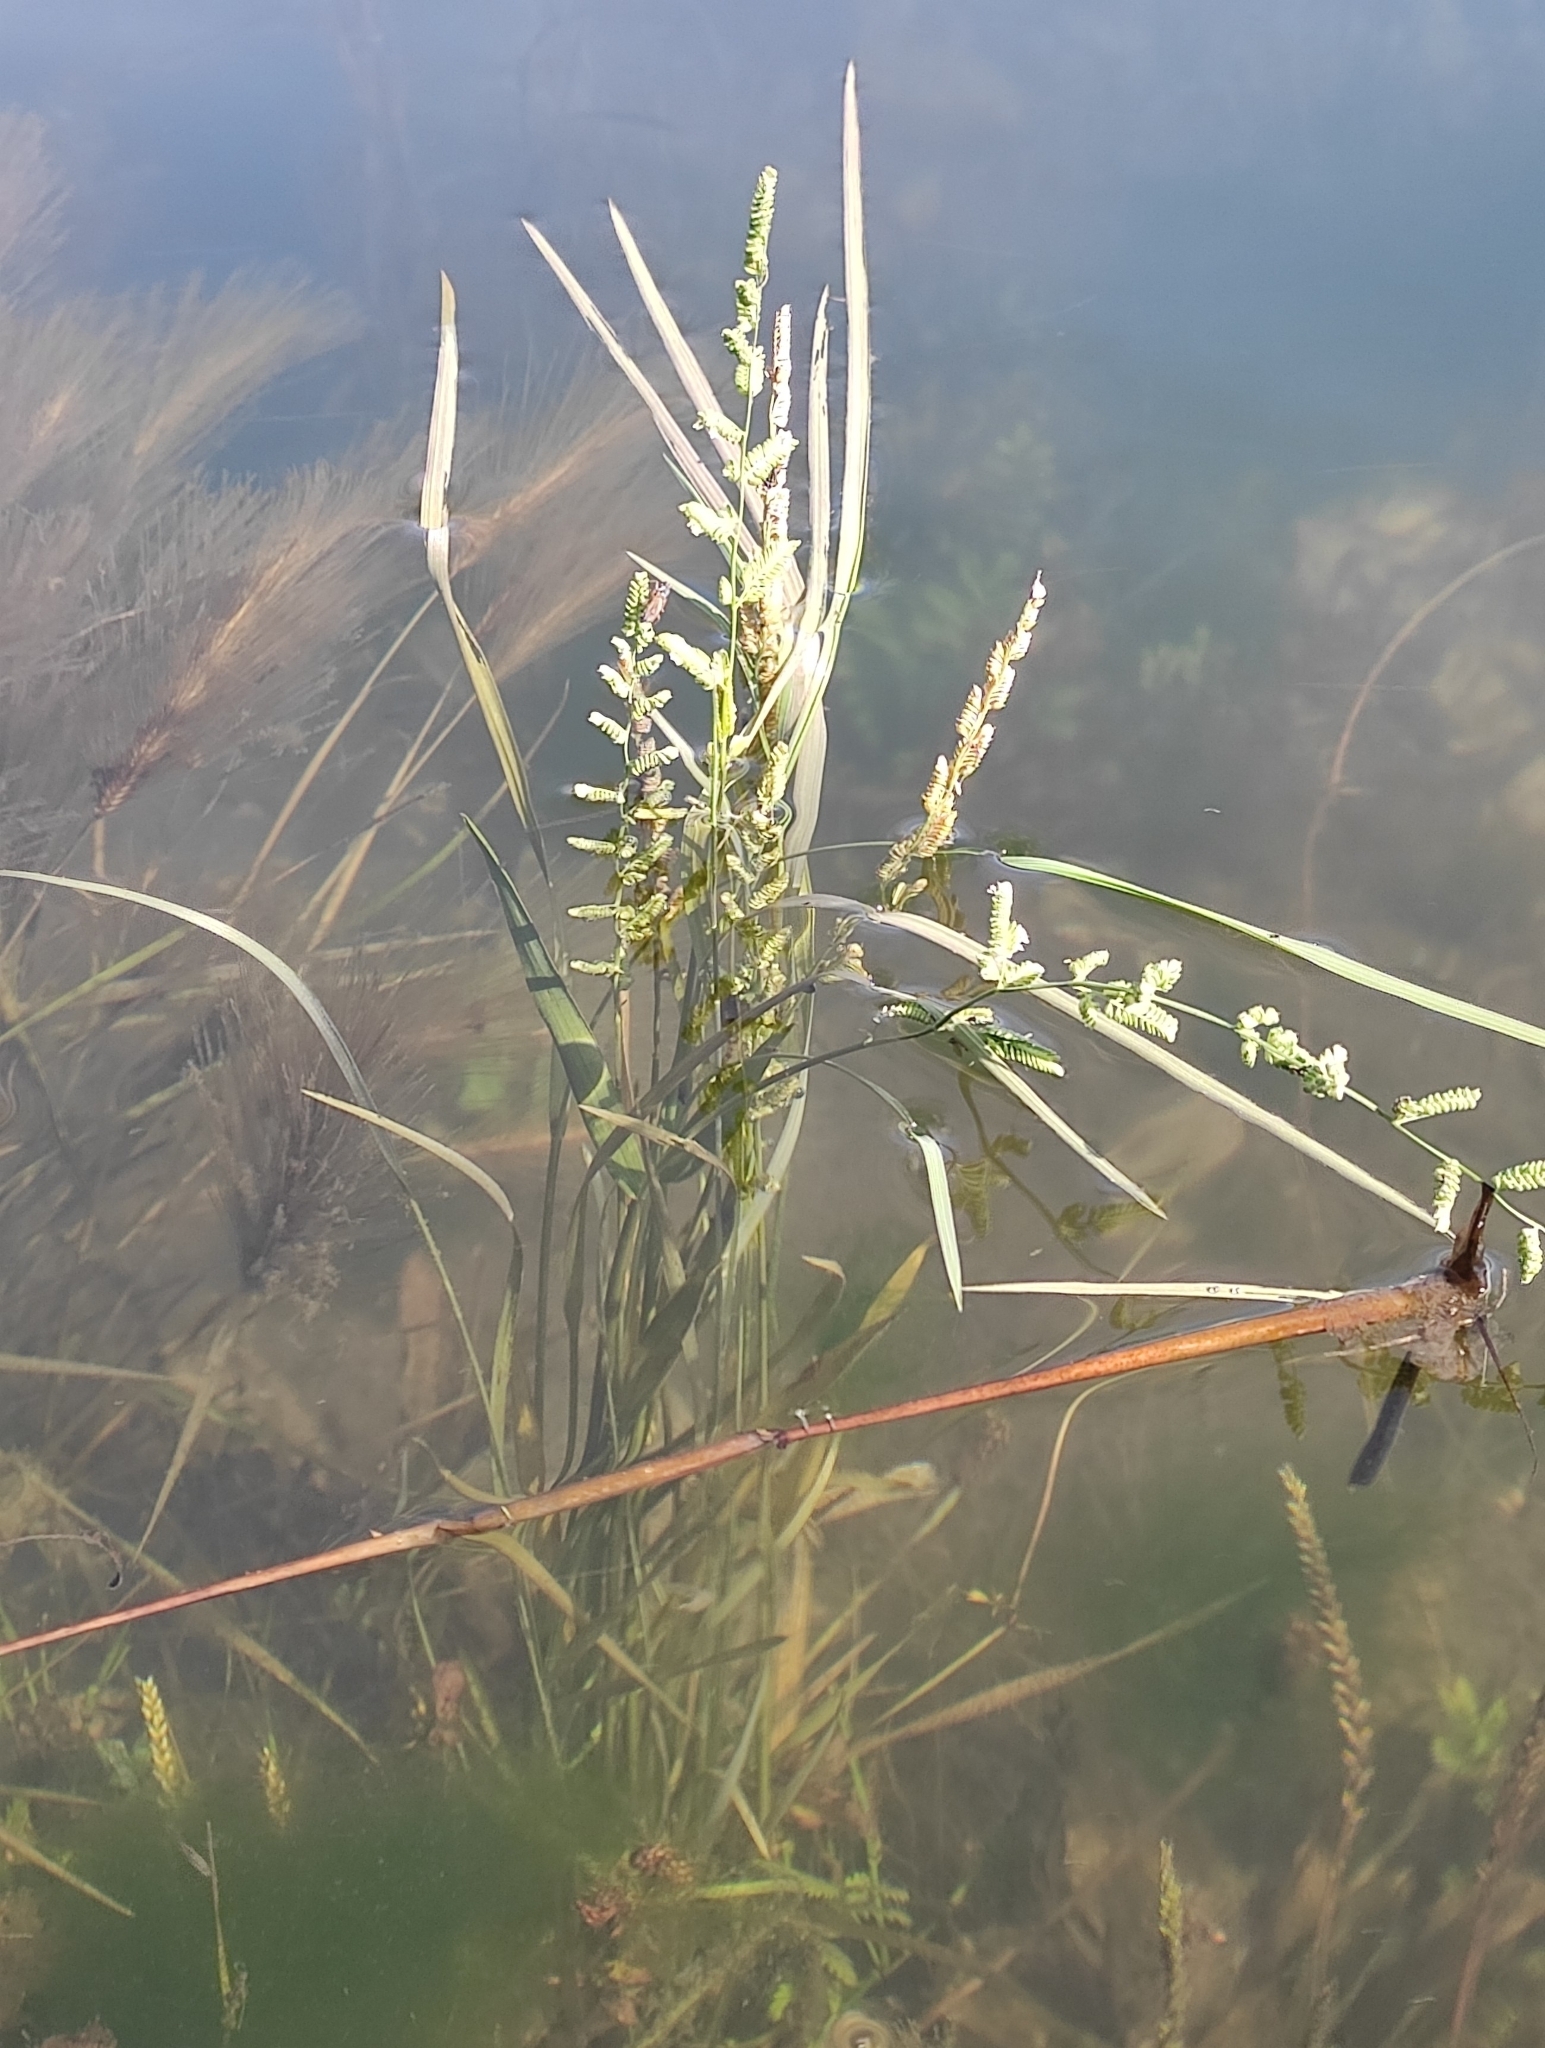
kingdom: Plantae
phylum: Tracheophyta
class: Liliopsida
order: Poales
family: Poaceae
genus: Beckmannia
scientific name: Beckmannia syzigachne
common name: American slough-grass
